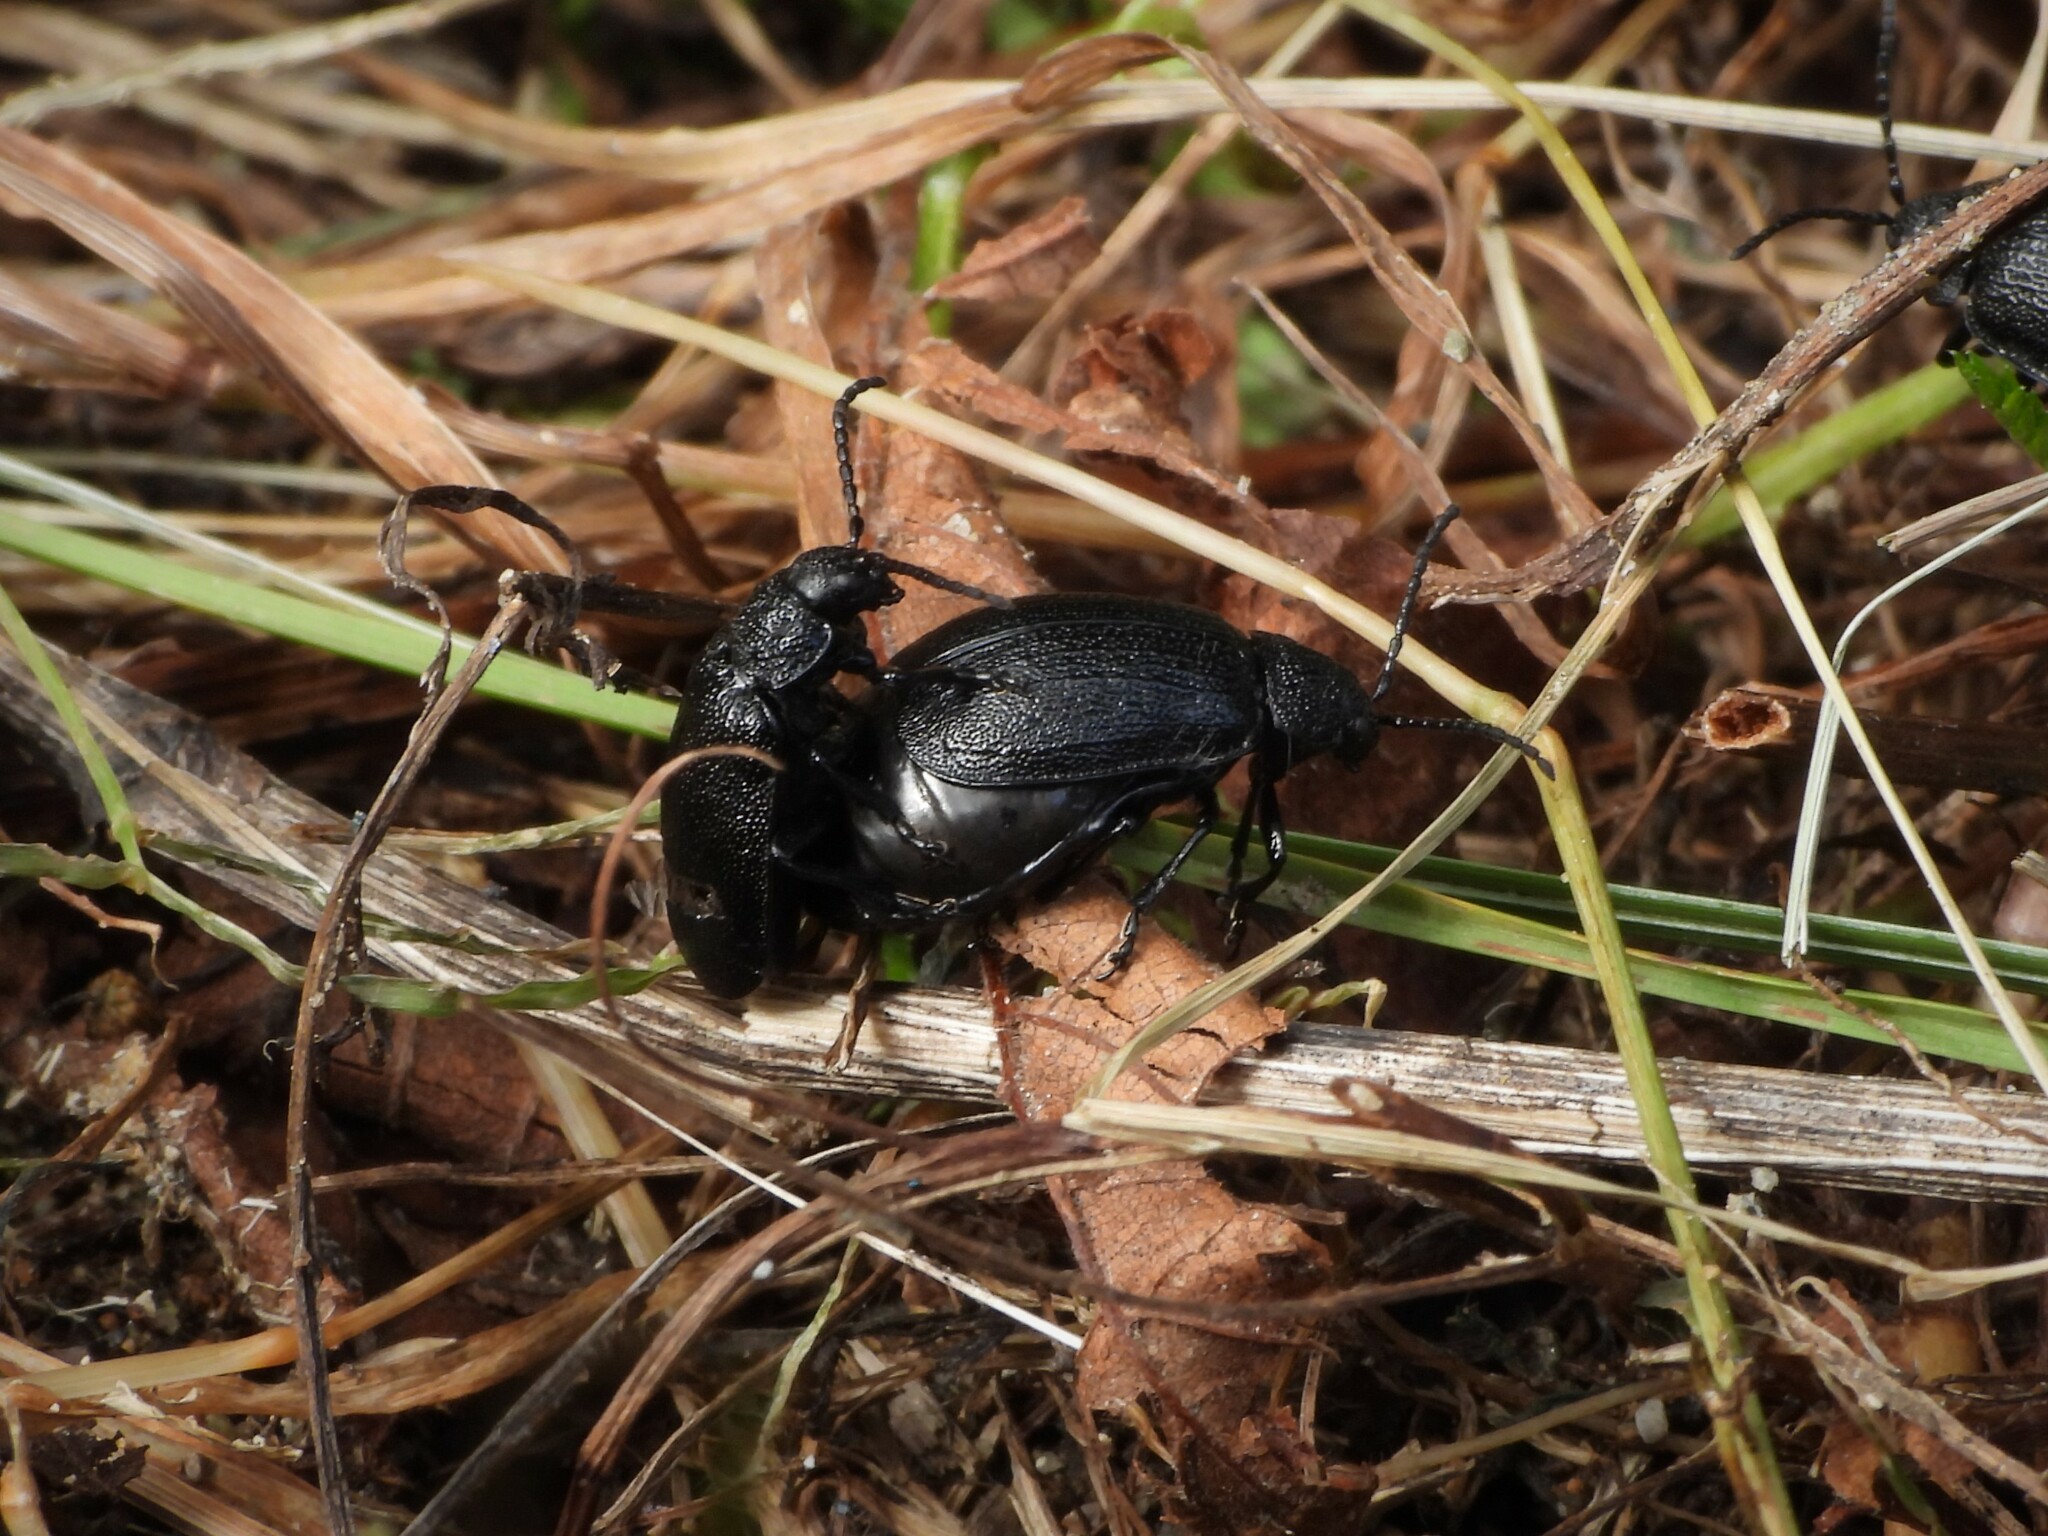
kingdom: Animalia
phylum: Arthropoda
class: Insecta
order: Coleoptera
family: Chrysomelidae
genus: Galeruca
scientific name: Galeruca tanaceti
